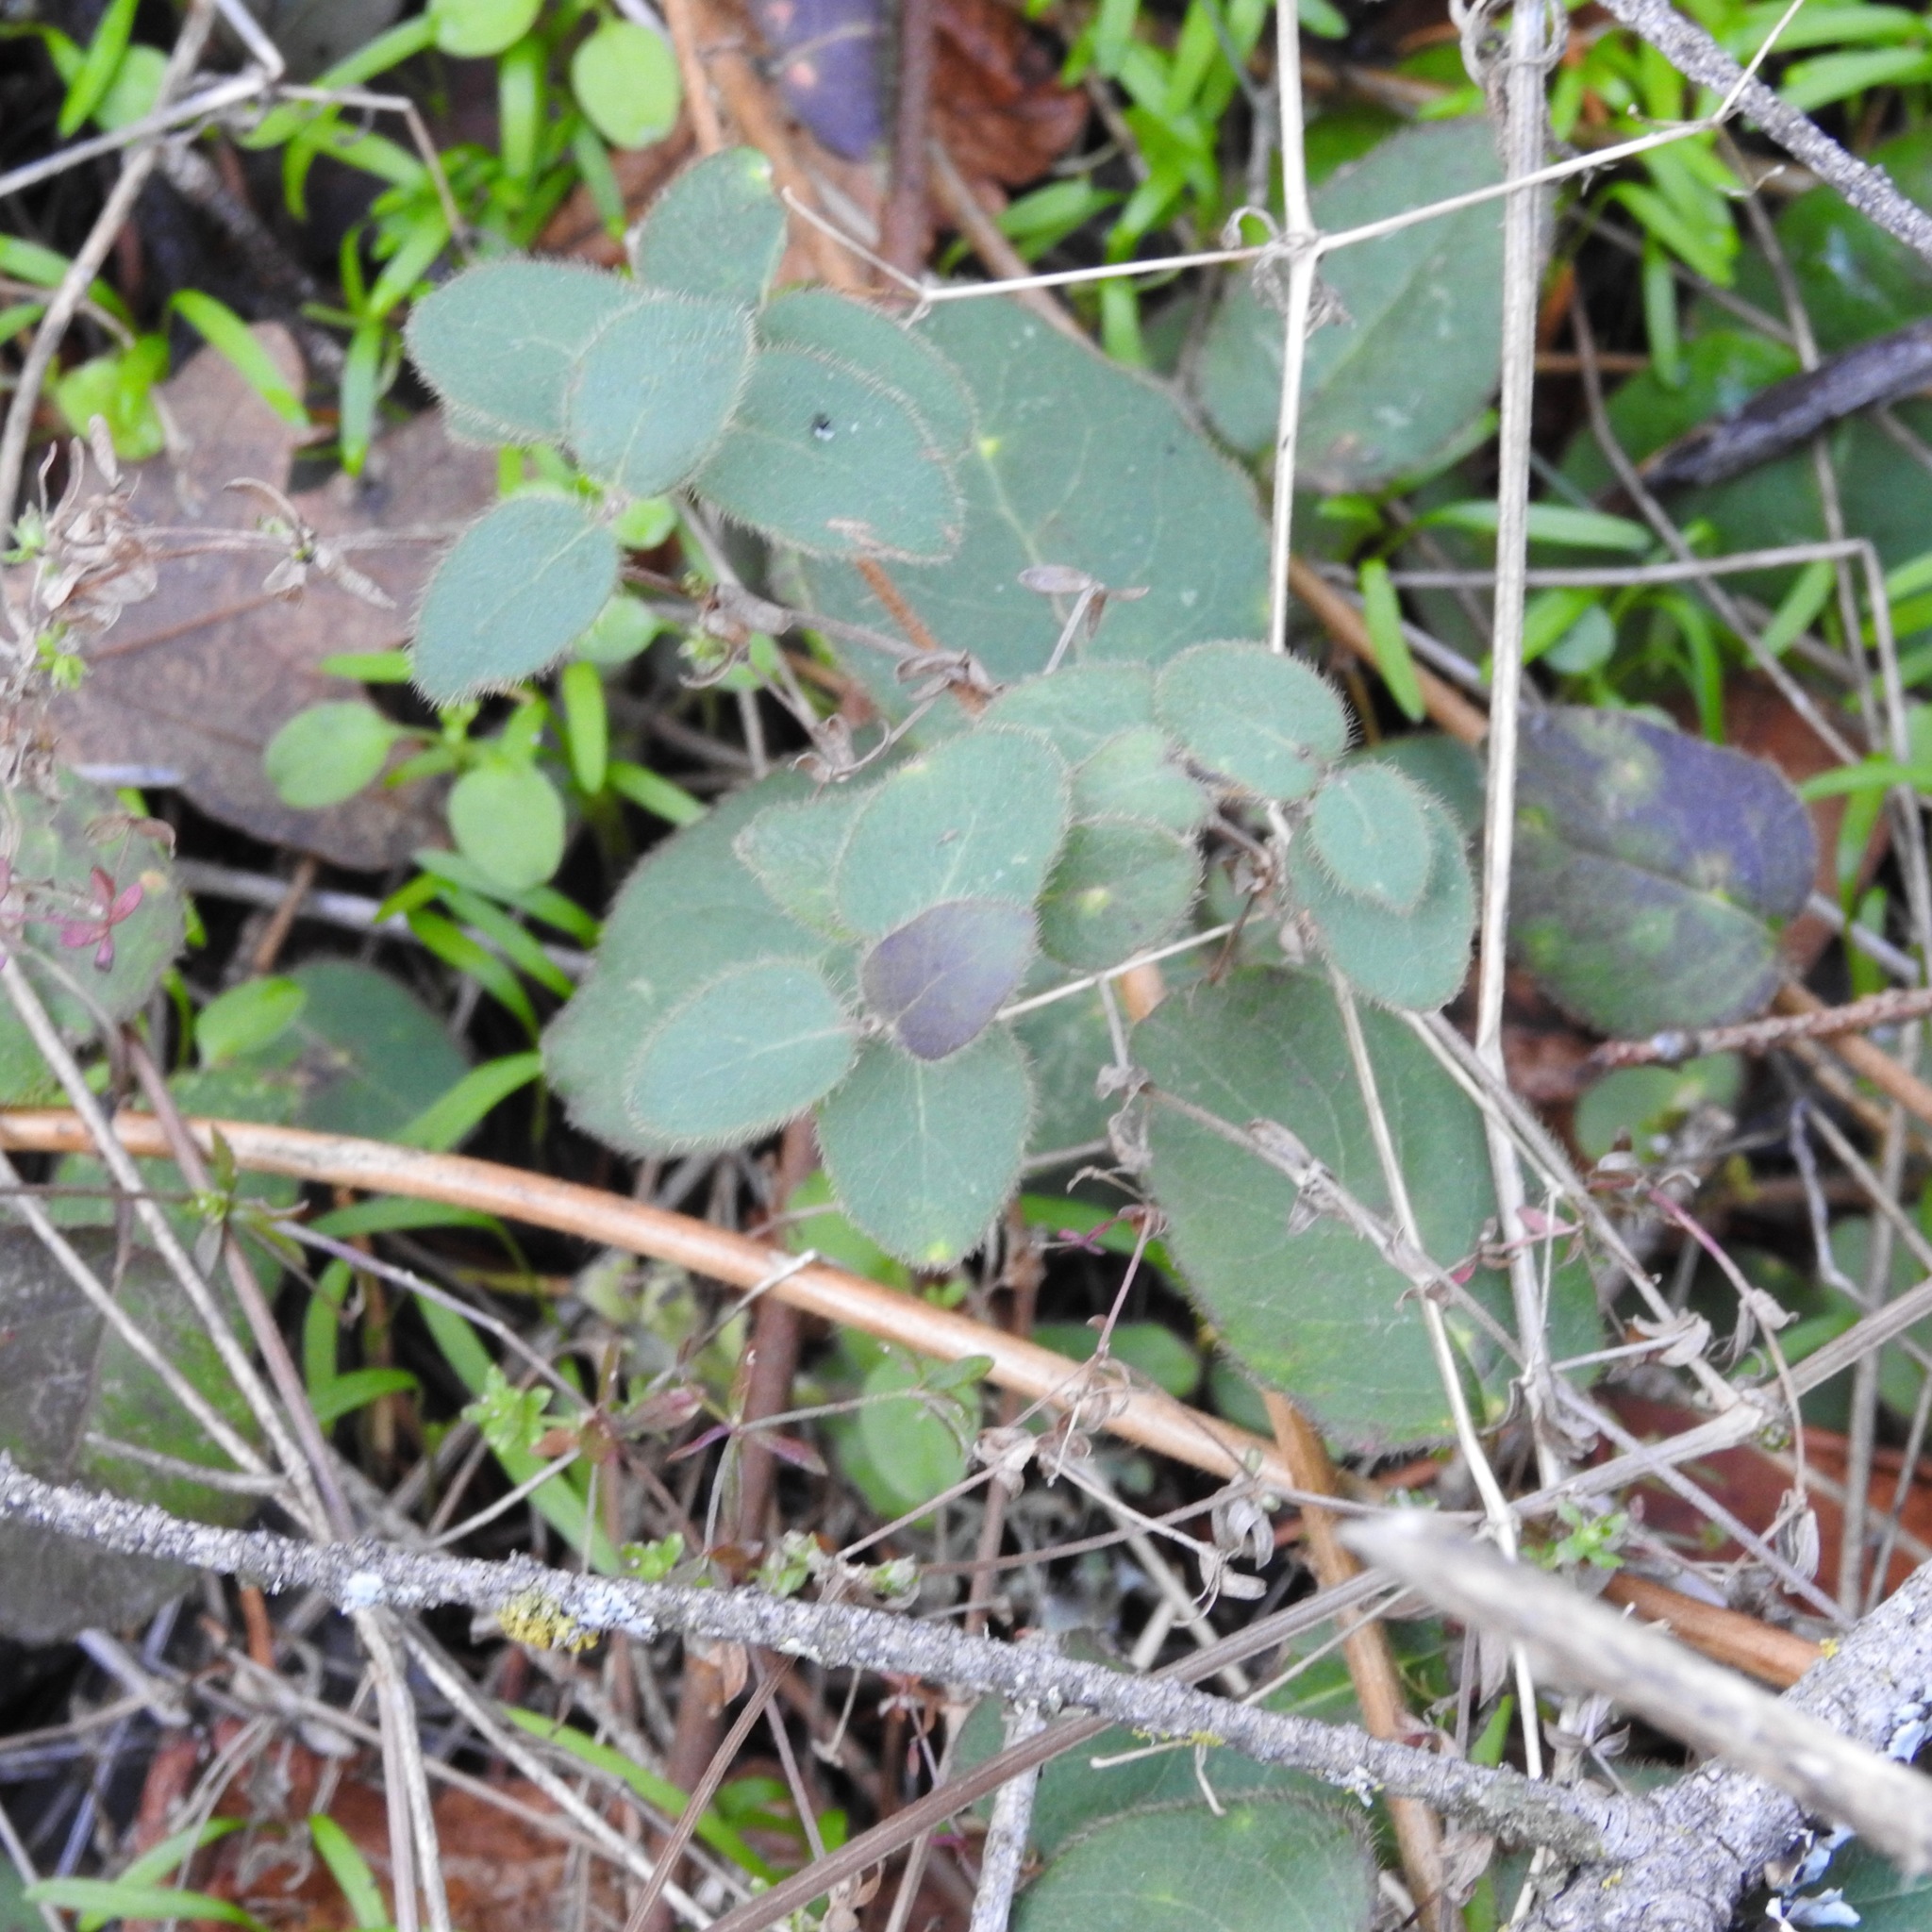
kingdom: Plantae
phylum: Tracheophyta
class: Magnoliopsida
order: Dipsacales
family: Caprifoliaceae
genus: Lonicera
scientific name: Lonicera hispidula
